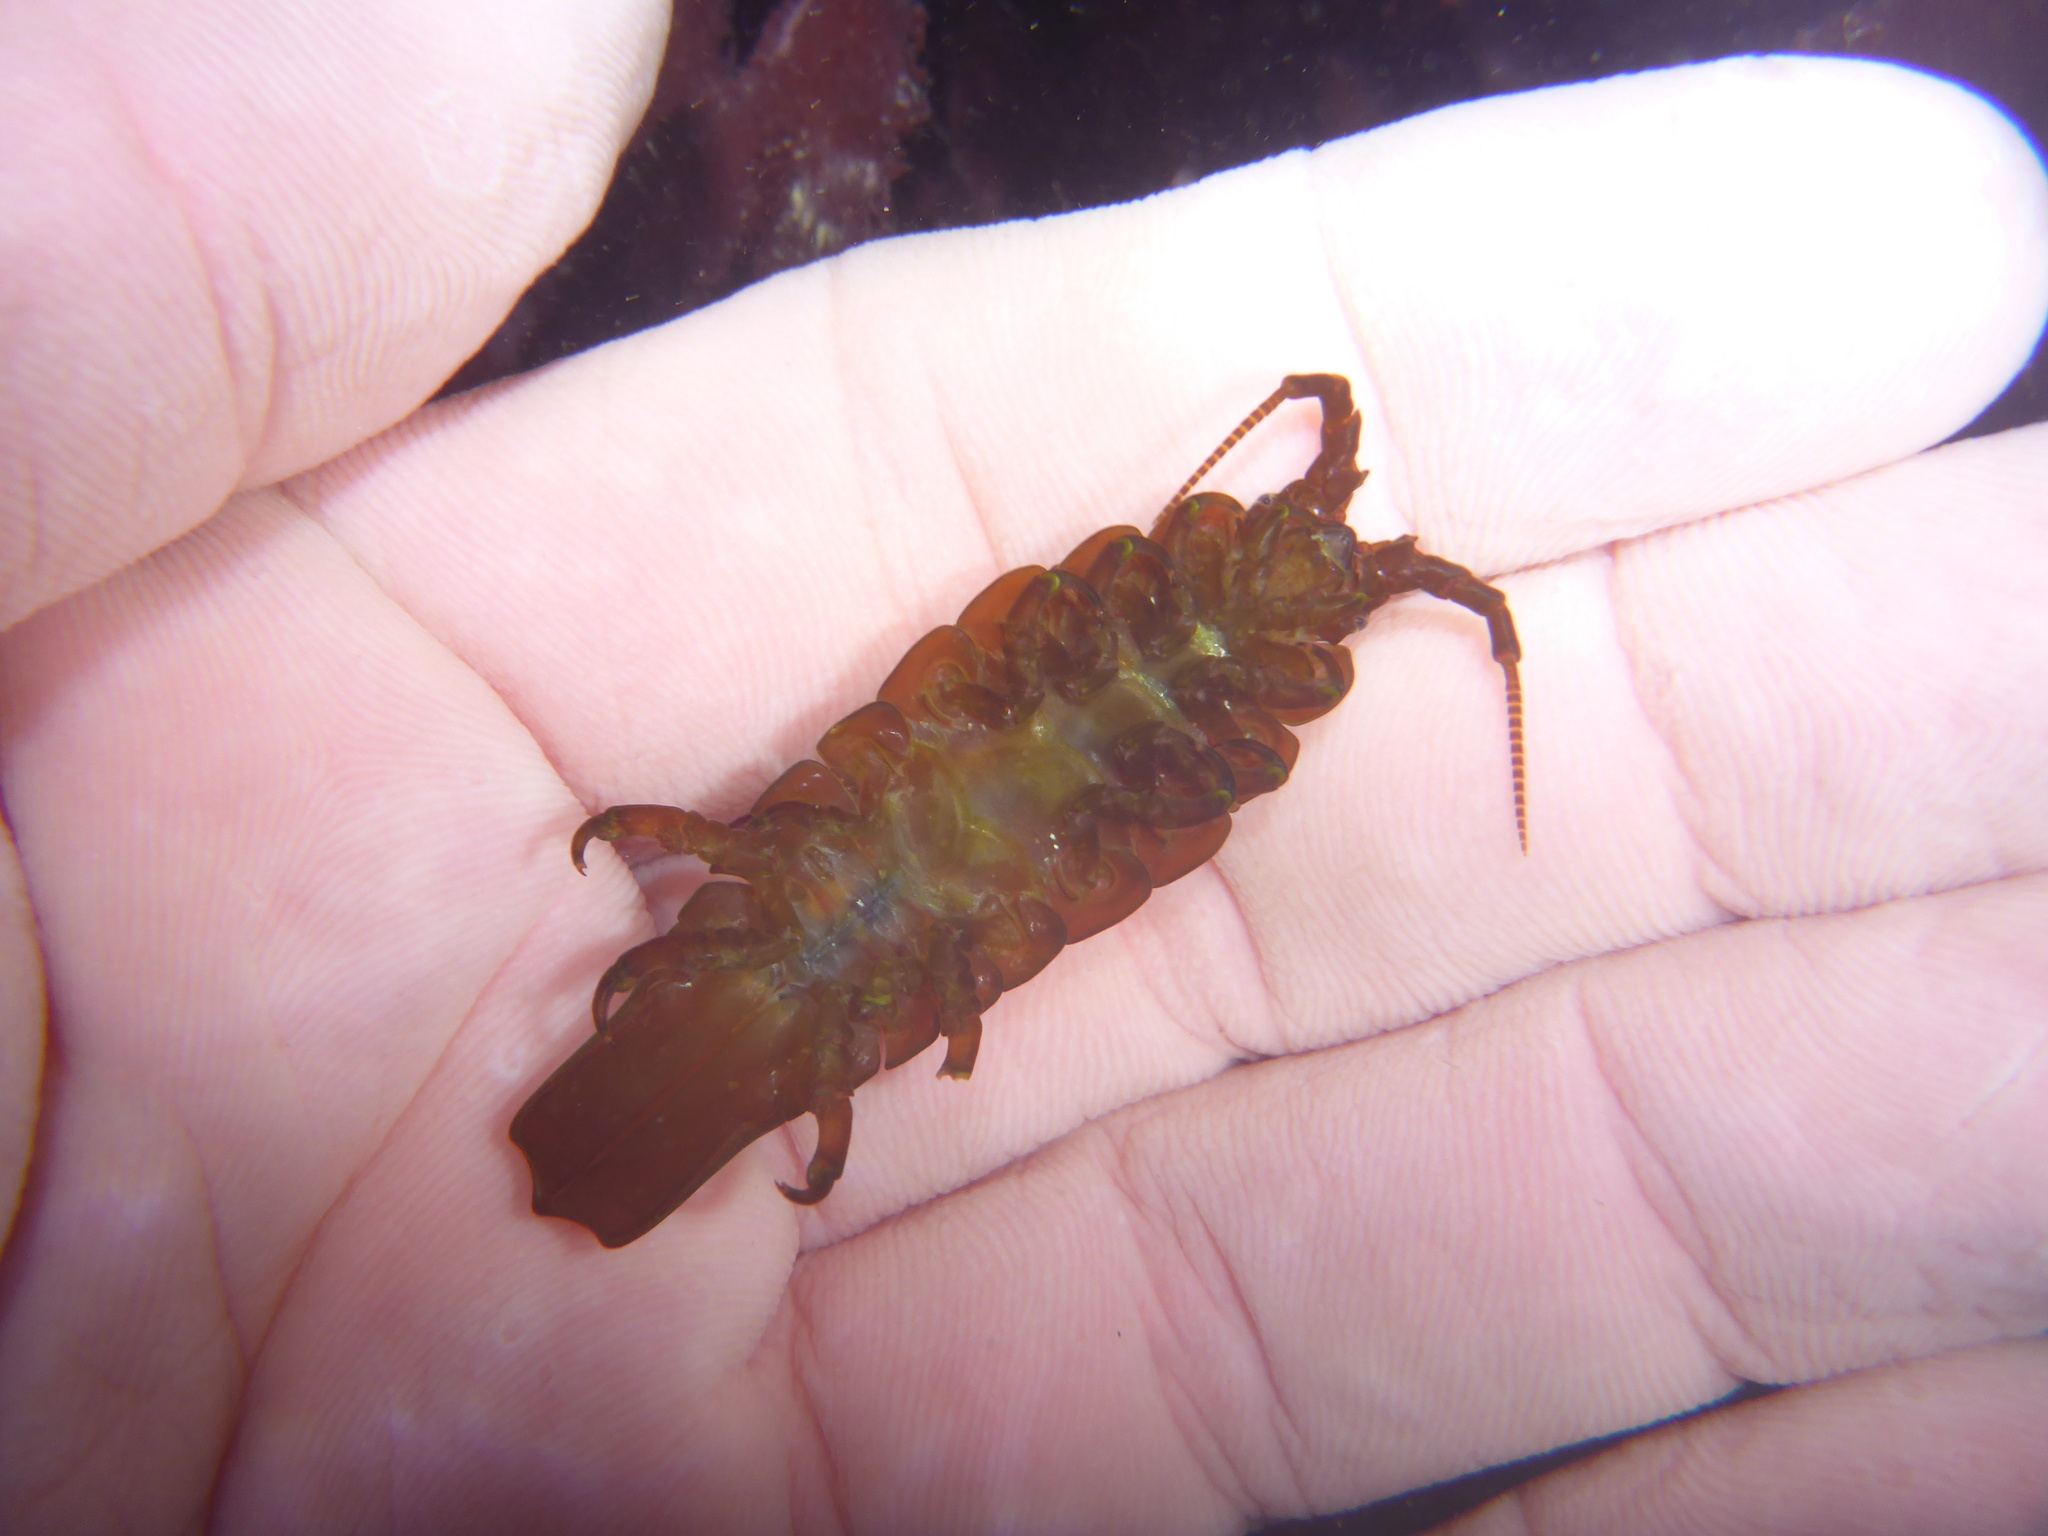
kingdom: Animalia
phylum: Arthropoda
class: Malacostraca
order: Isopoda
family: Idoteidae
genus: Pentidotea
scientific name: Pentidotea stenops
